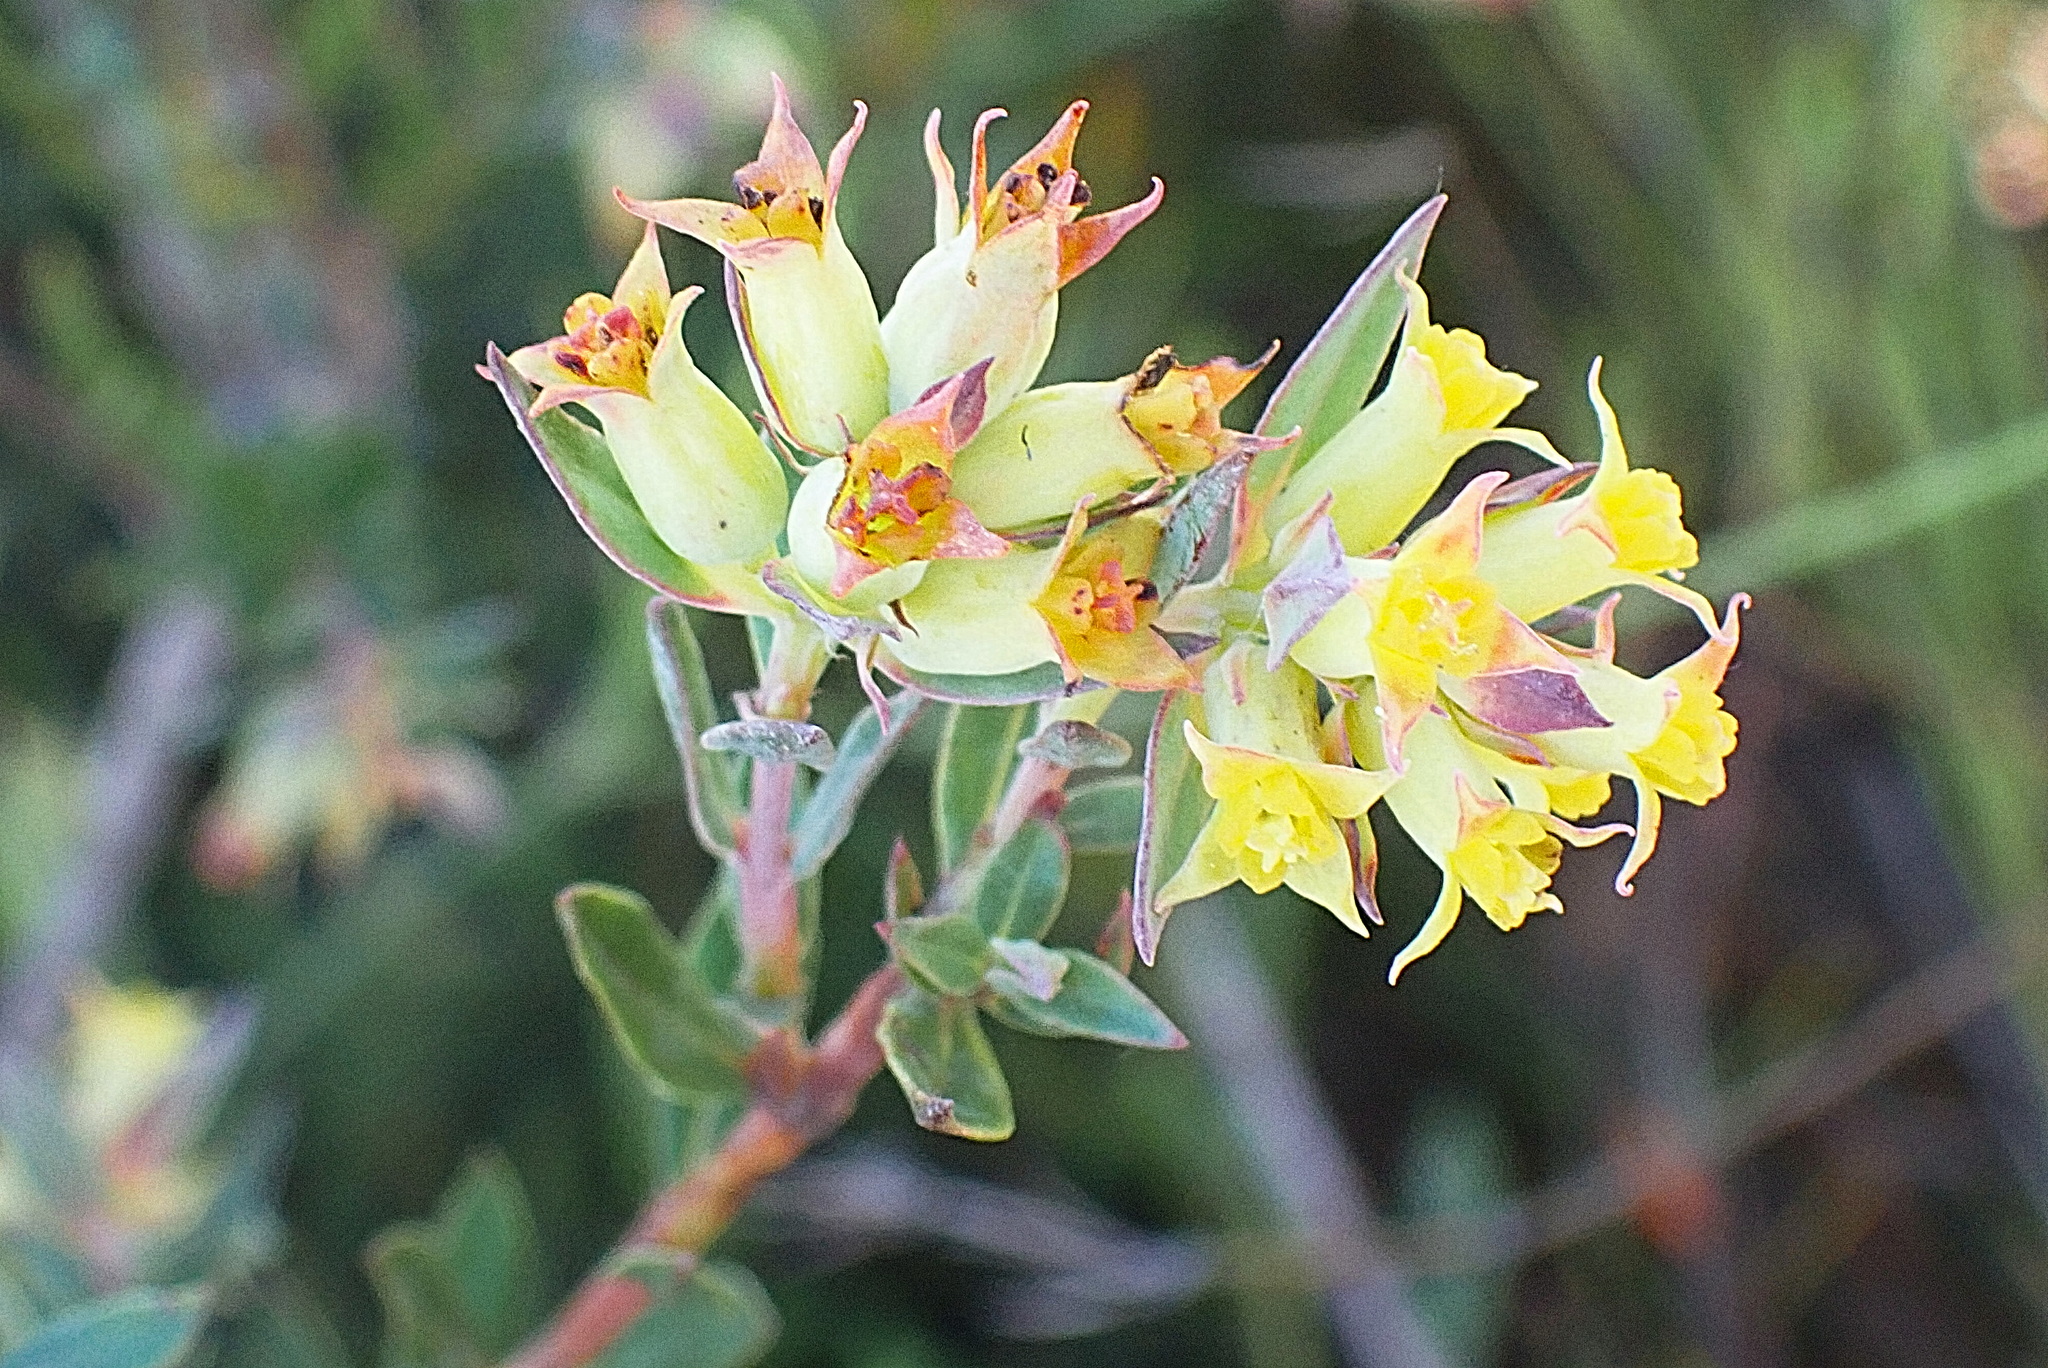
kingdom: Plantae
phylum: Tracheophyta
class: Magnoliopsida
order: Myrtales
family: Penaeaceae
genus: Penaea
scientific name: Penaea acutifolia
